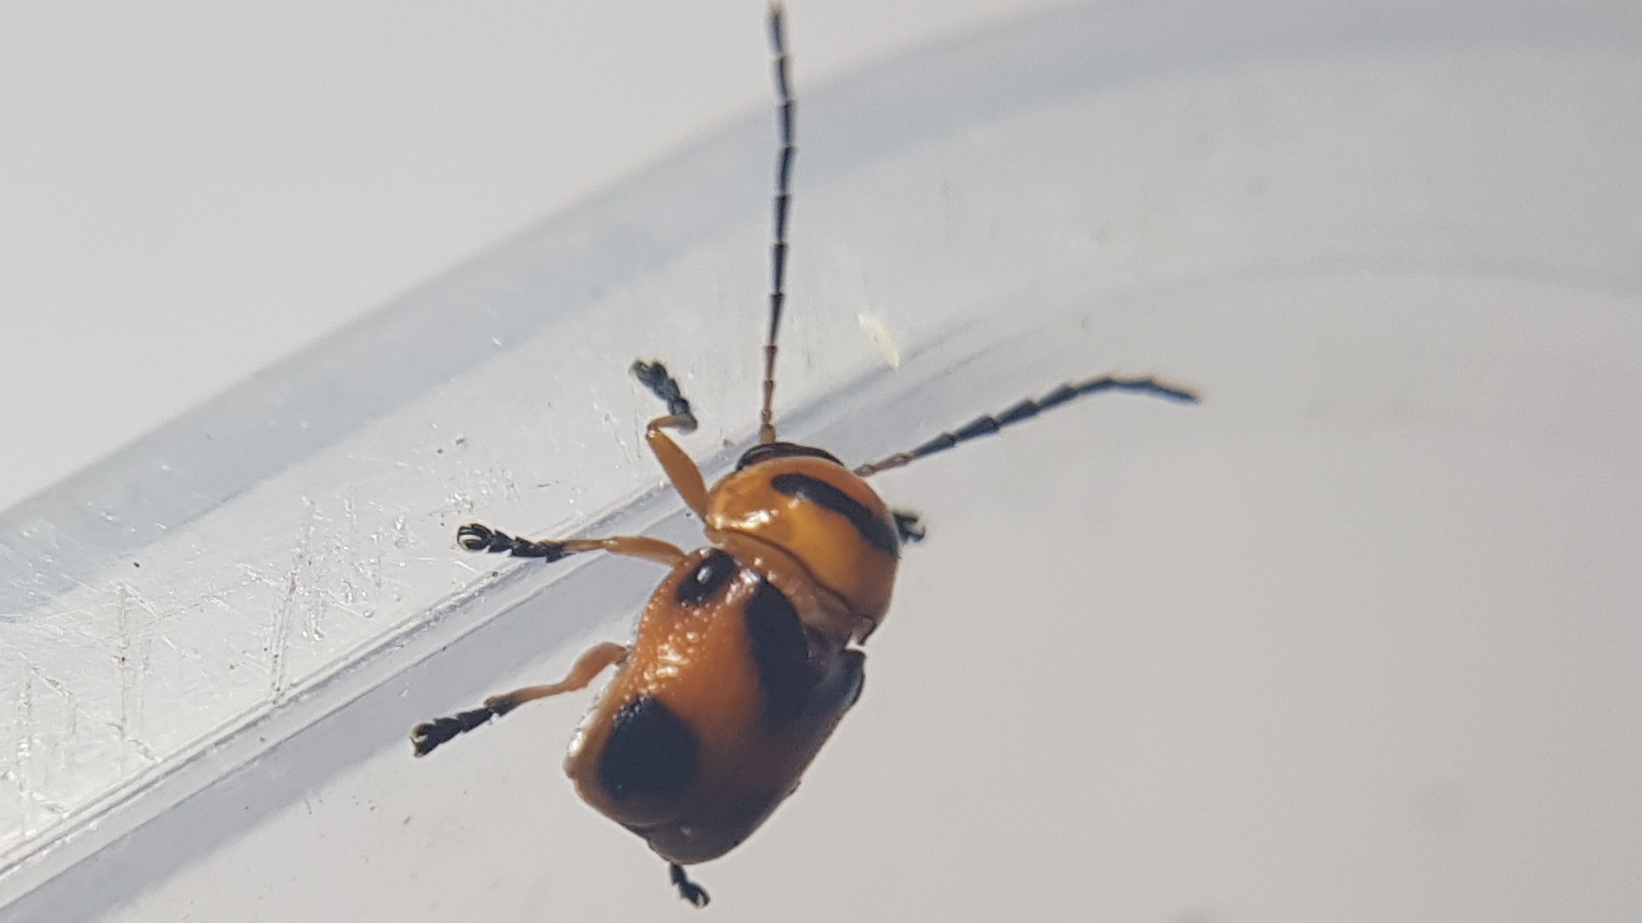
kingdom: Animalia
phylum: Arthropoda
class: Insecta
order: Coleoptera
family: Chrysomelidae
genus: Aporocera
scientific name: Aporocera
